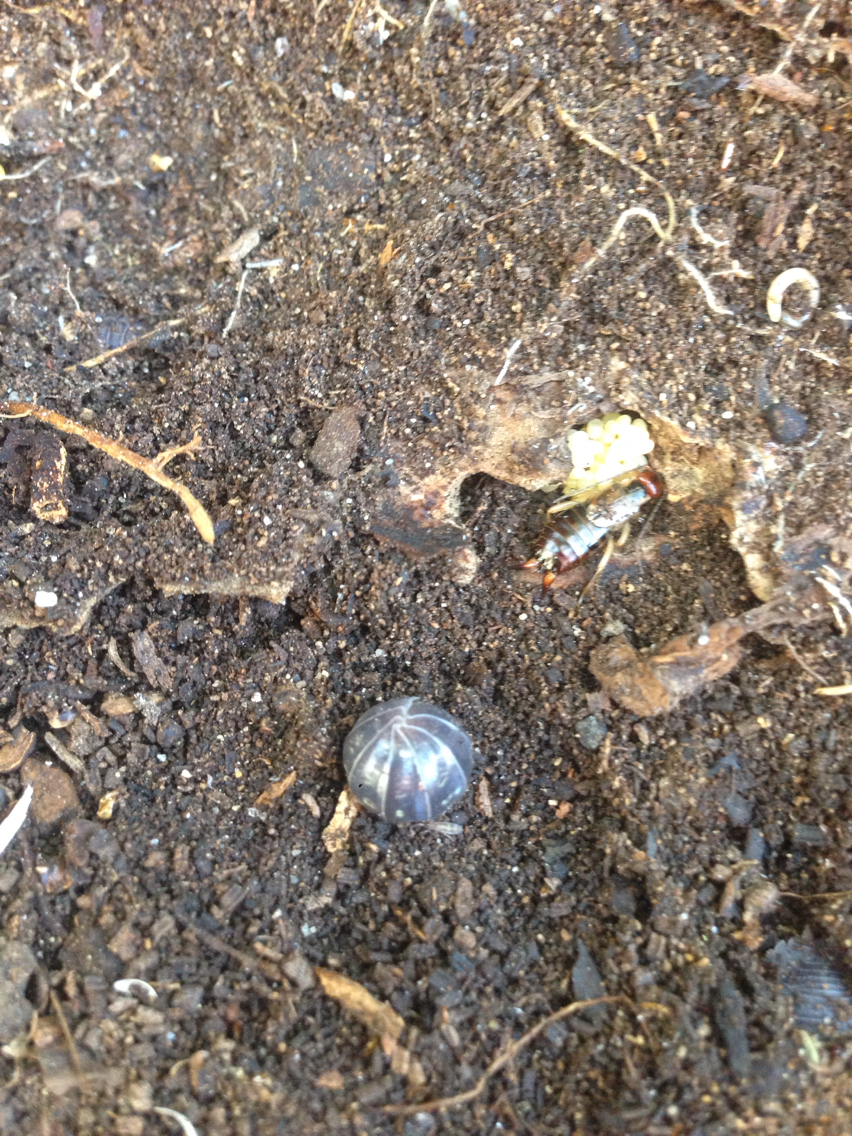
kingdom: Animalia
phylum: Arthropoda
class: Malacostraca
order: Isopoda
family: Armadillidiidae
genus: Armadillidium
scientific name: Armadillidium vulgare
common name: Common pill woodlouse
